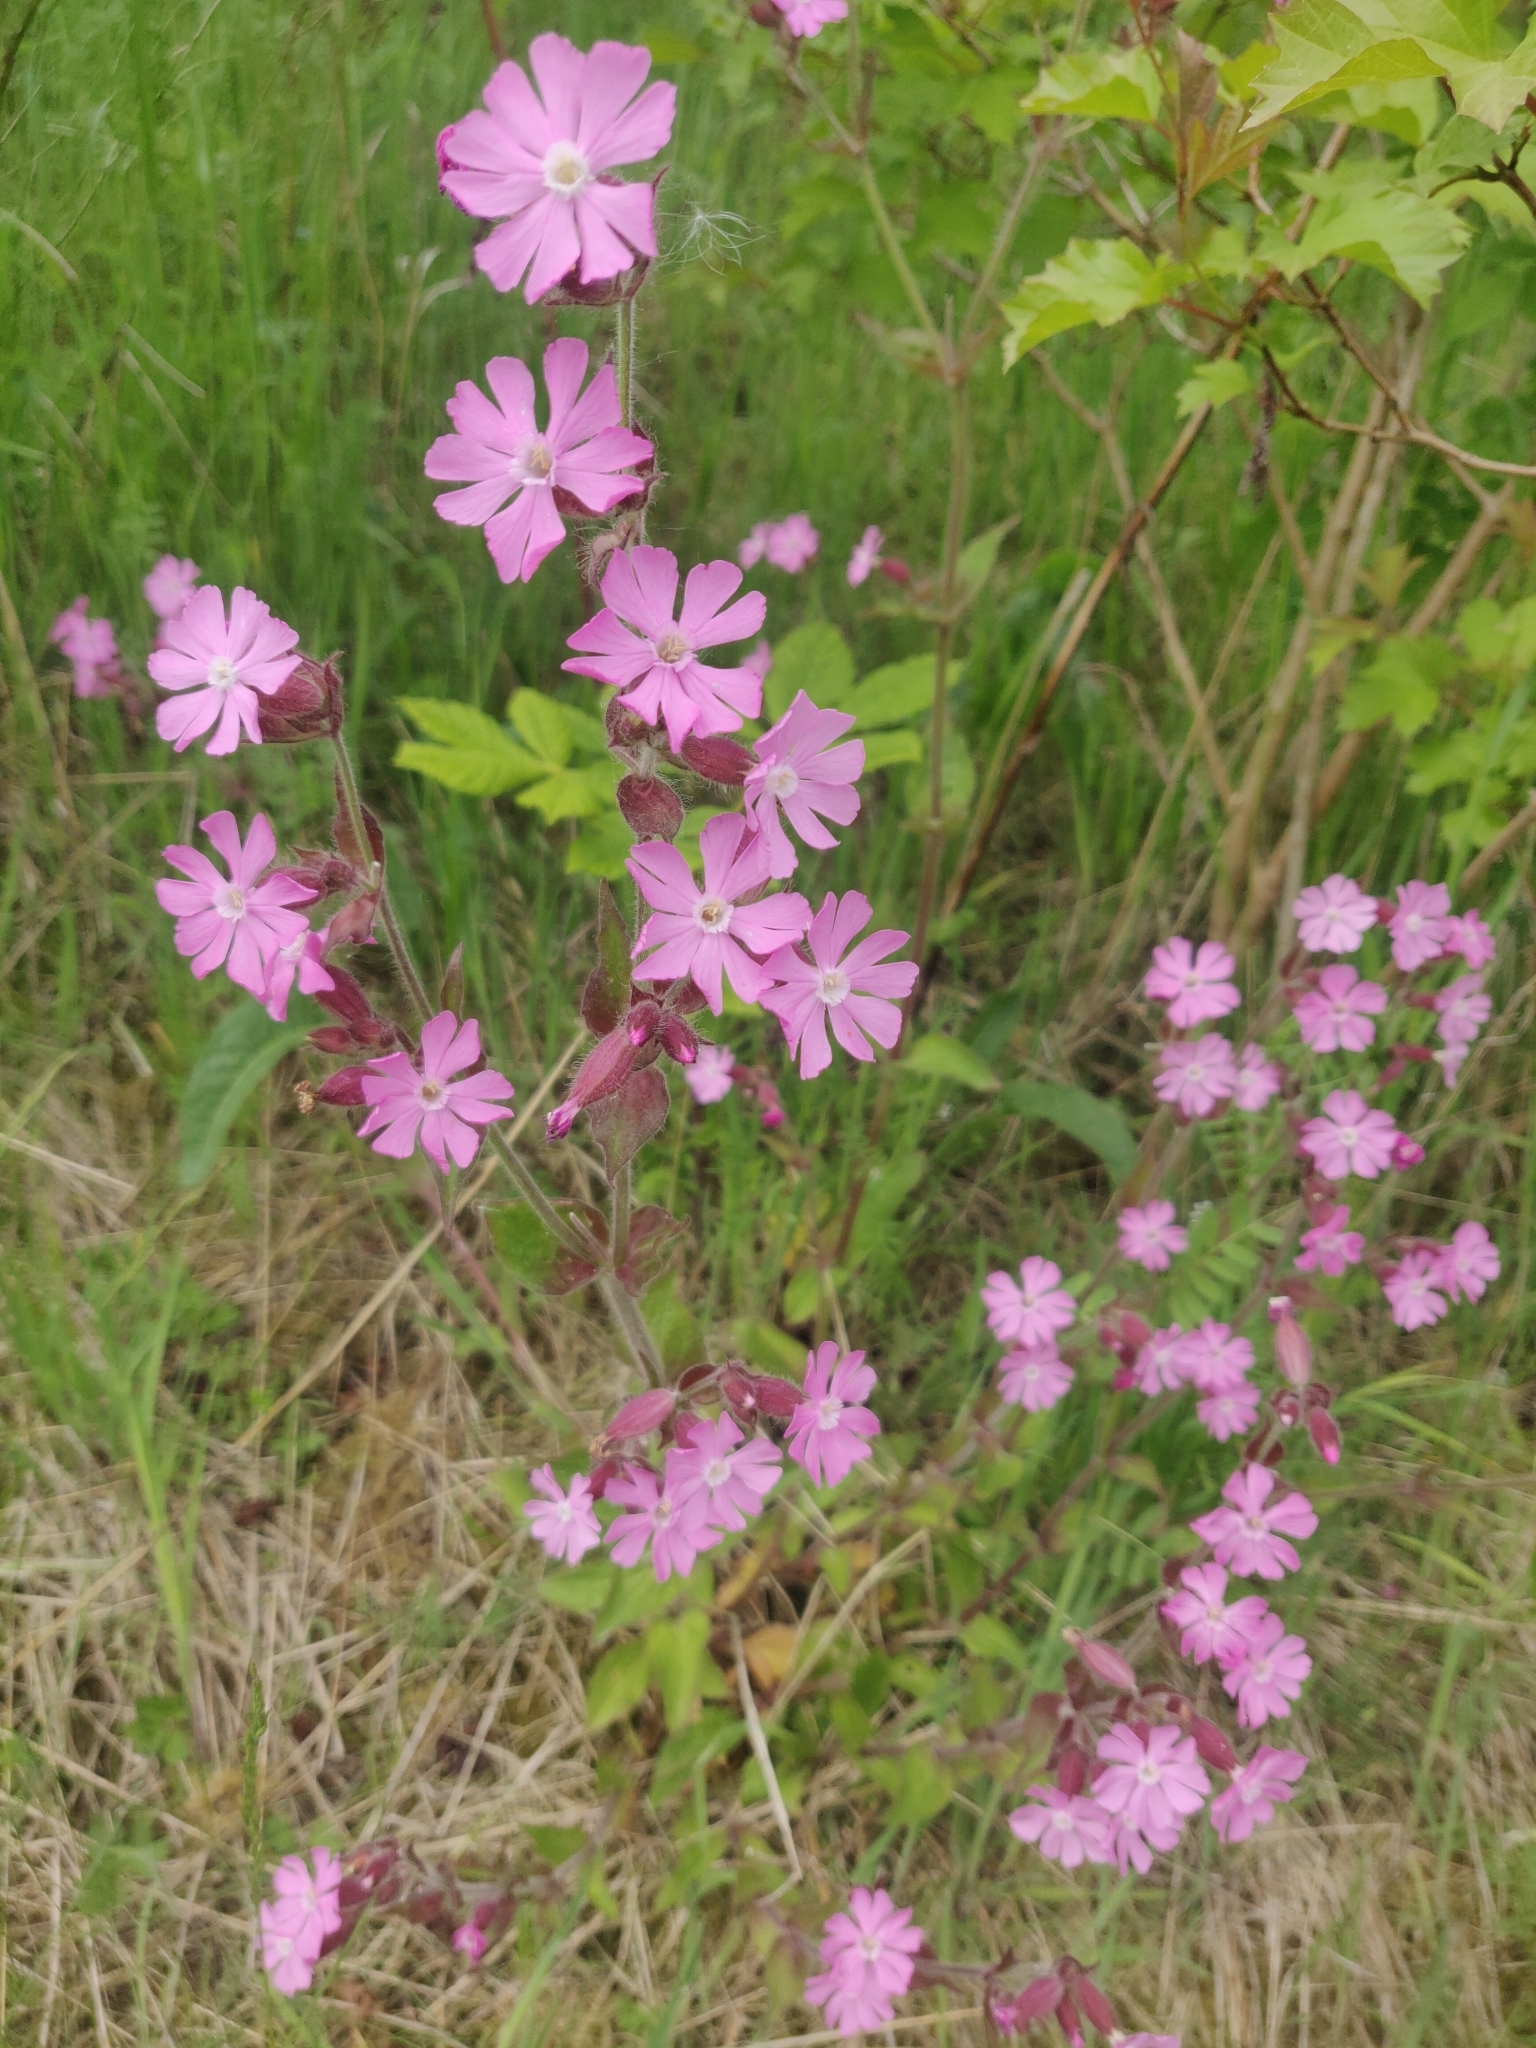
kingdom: Plantae
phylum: Tracheophyta
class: Magnoliopsida
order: Caryophyllales
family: Caryophyllaceae
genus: Silene
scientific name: Silene dioica
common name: Red campion
